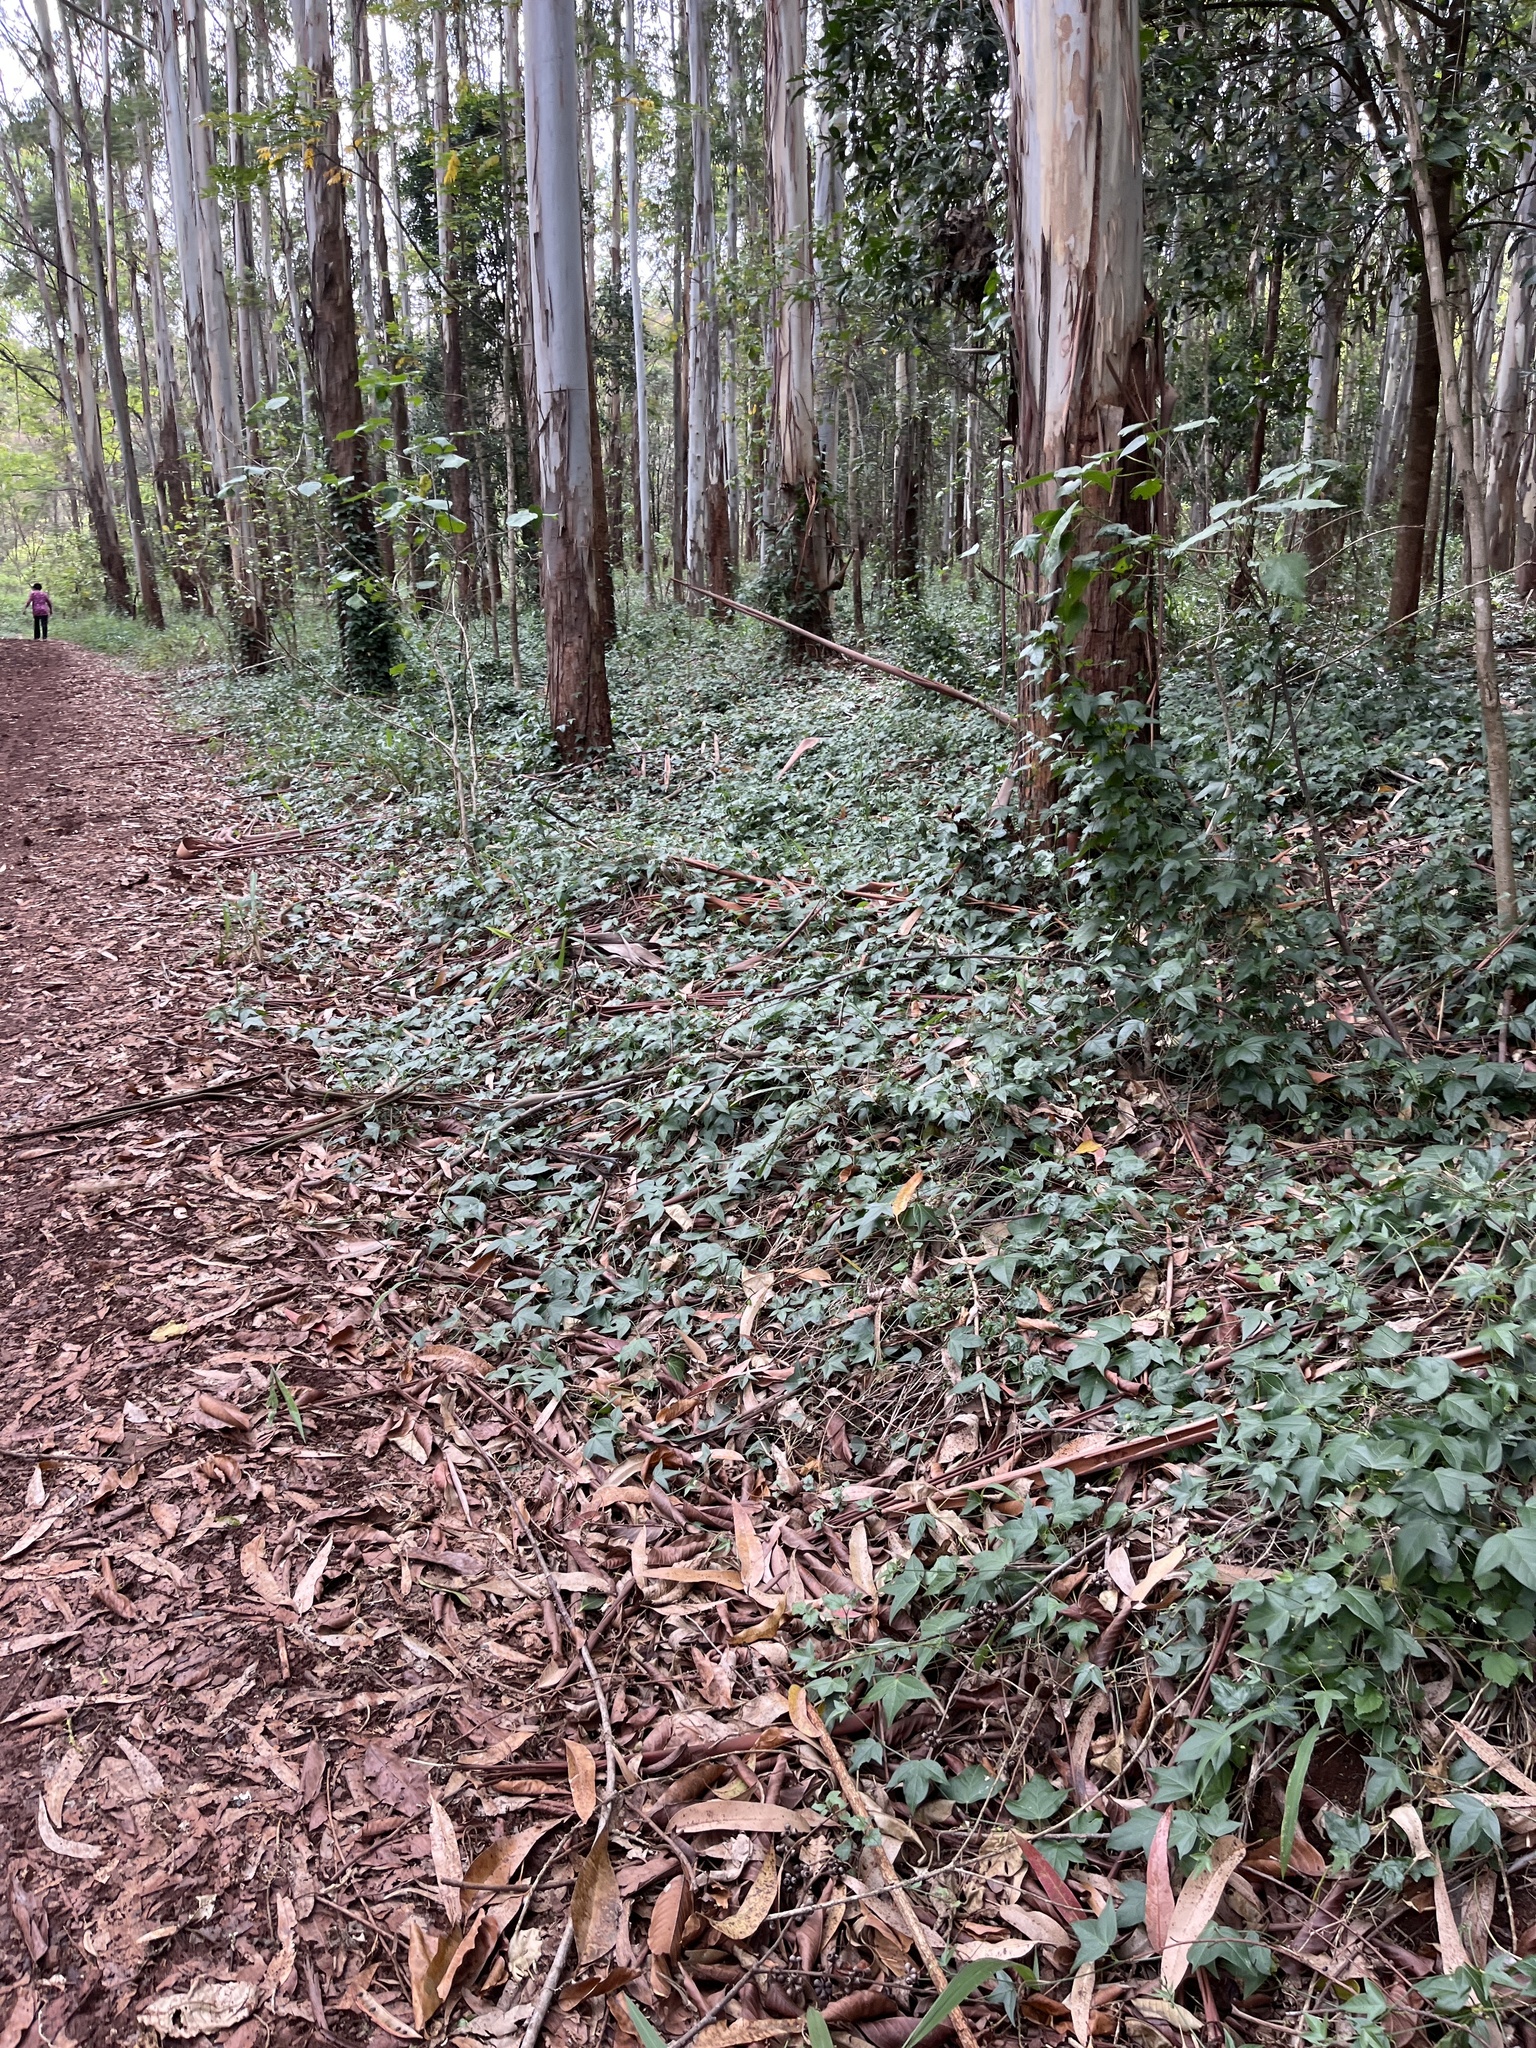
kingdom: Plantae
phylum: Tracheophyta
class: Magnoliopsida
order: Malpighiales
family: Passifloraceae
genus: Passiflora
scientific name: Passiflora suberosa
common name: Wild passionfruit
